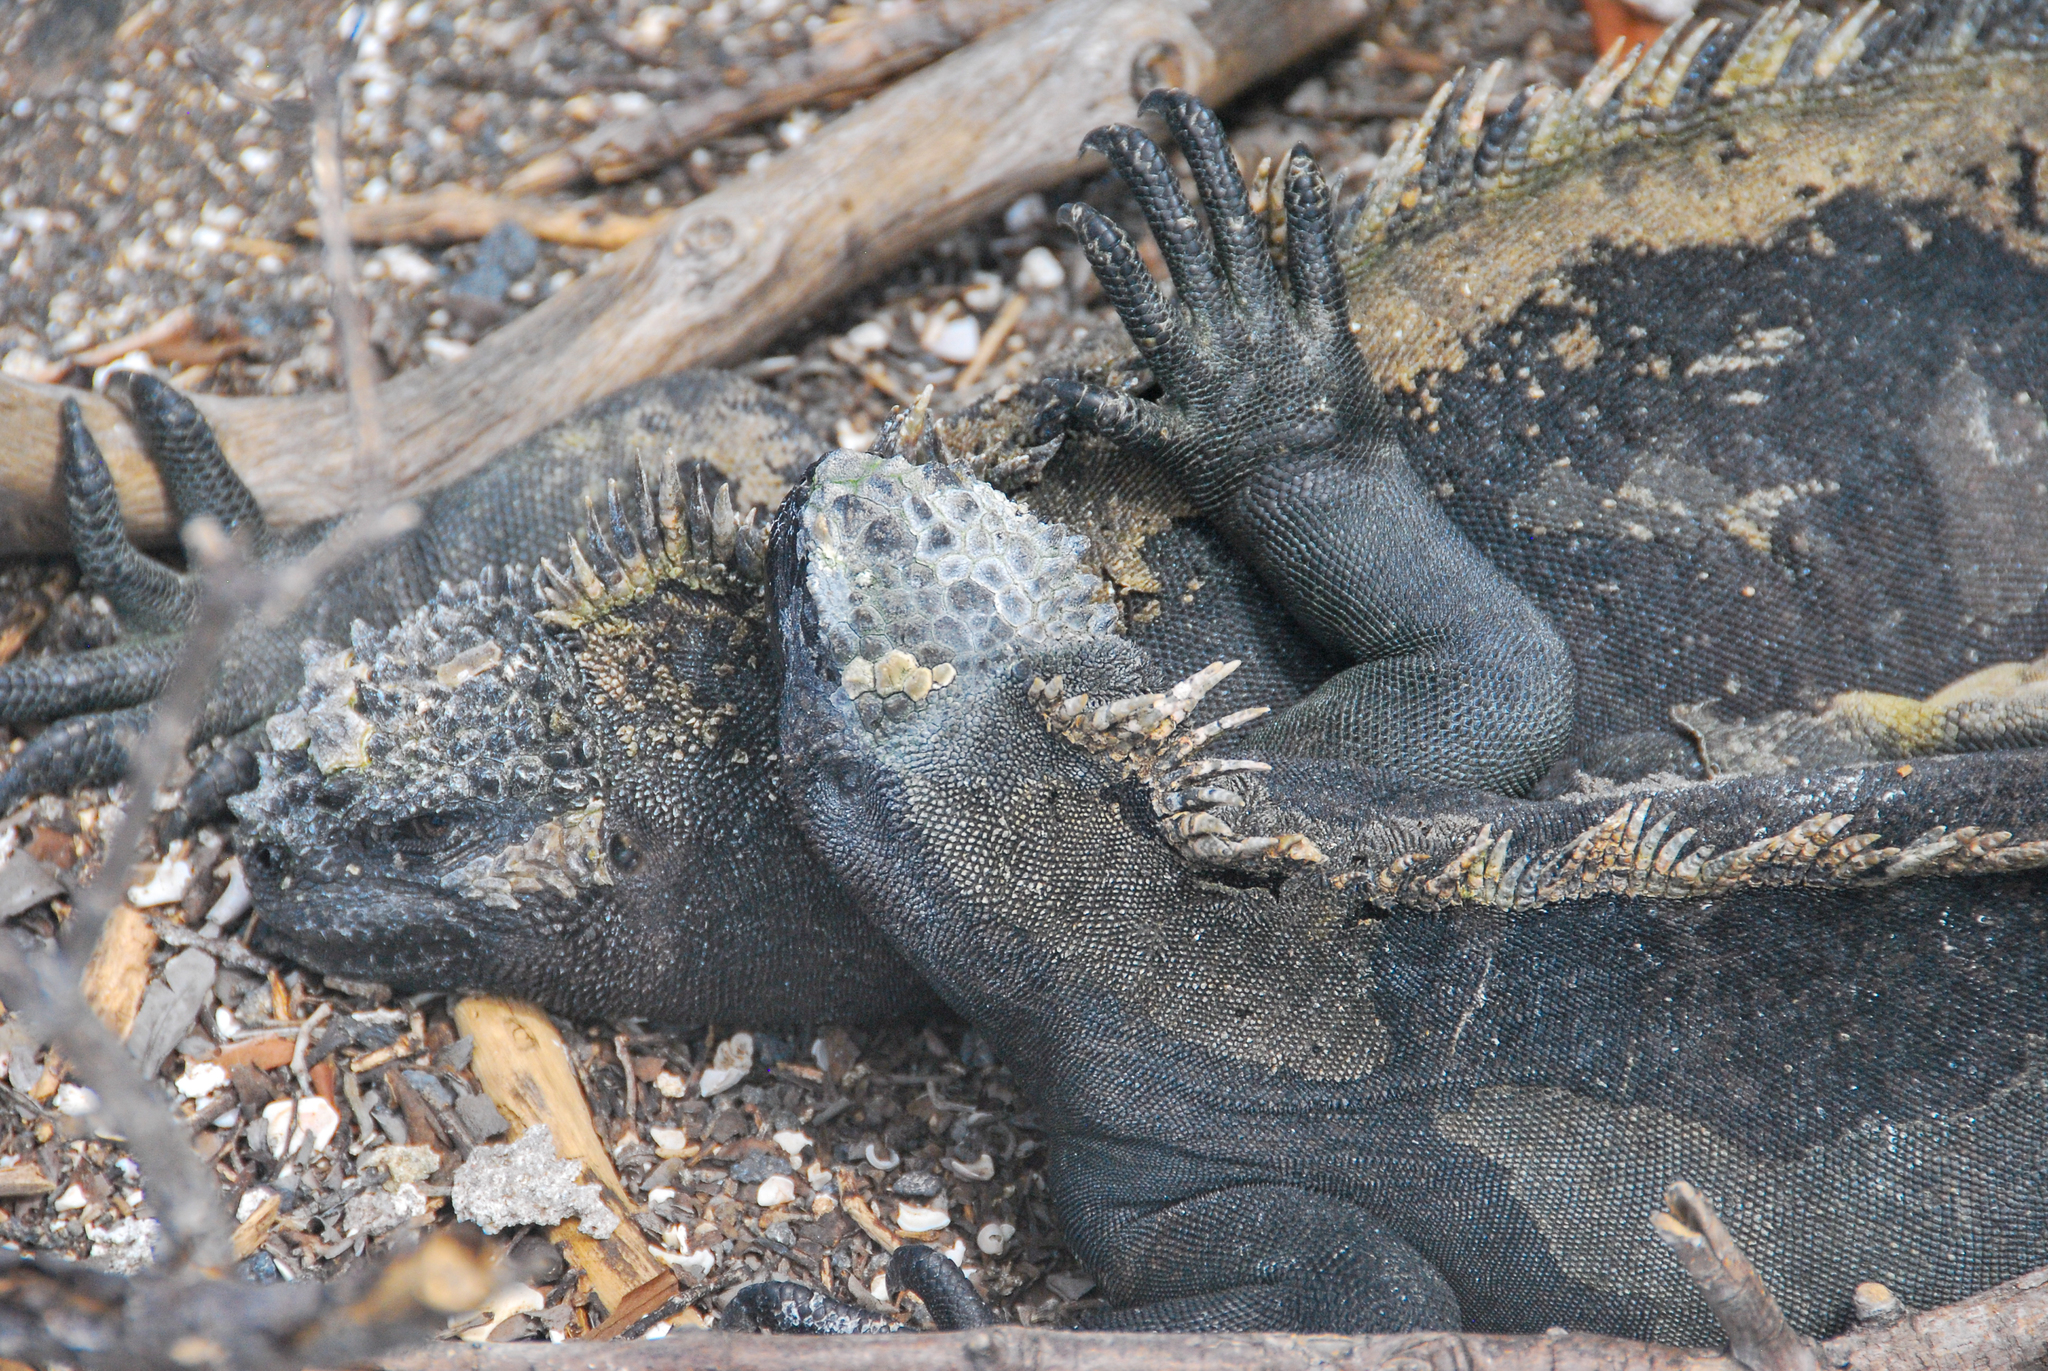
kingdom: Animalia
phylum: Chordata
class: Squamata
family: Iguanidae
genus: Amblyrhynchus
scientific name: Amblyrhynchus cristatus
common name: Marine iguana
